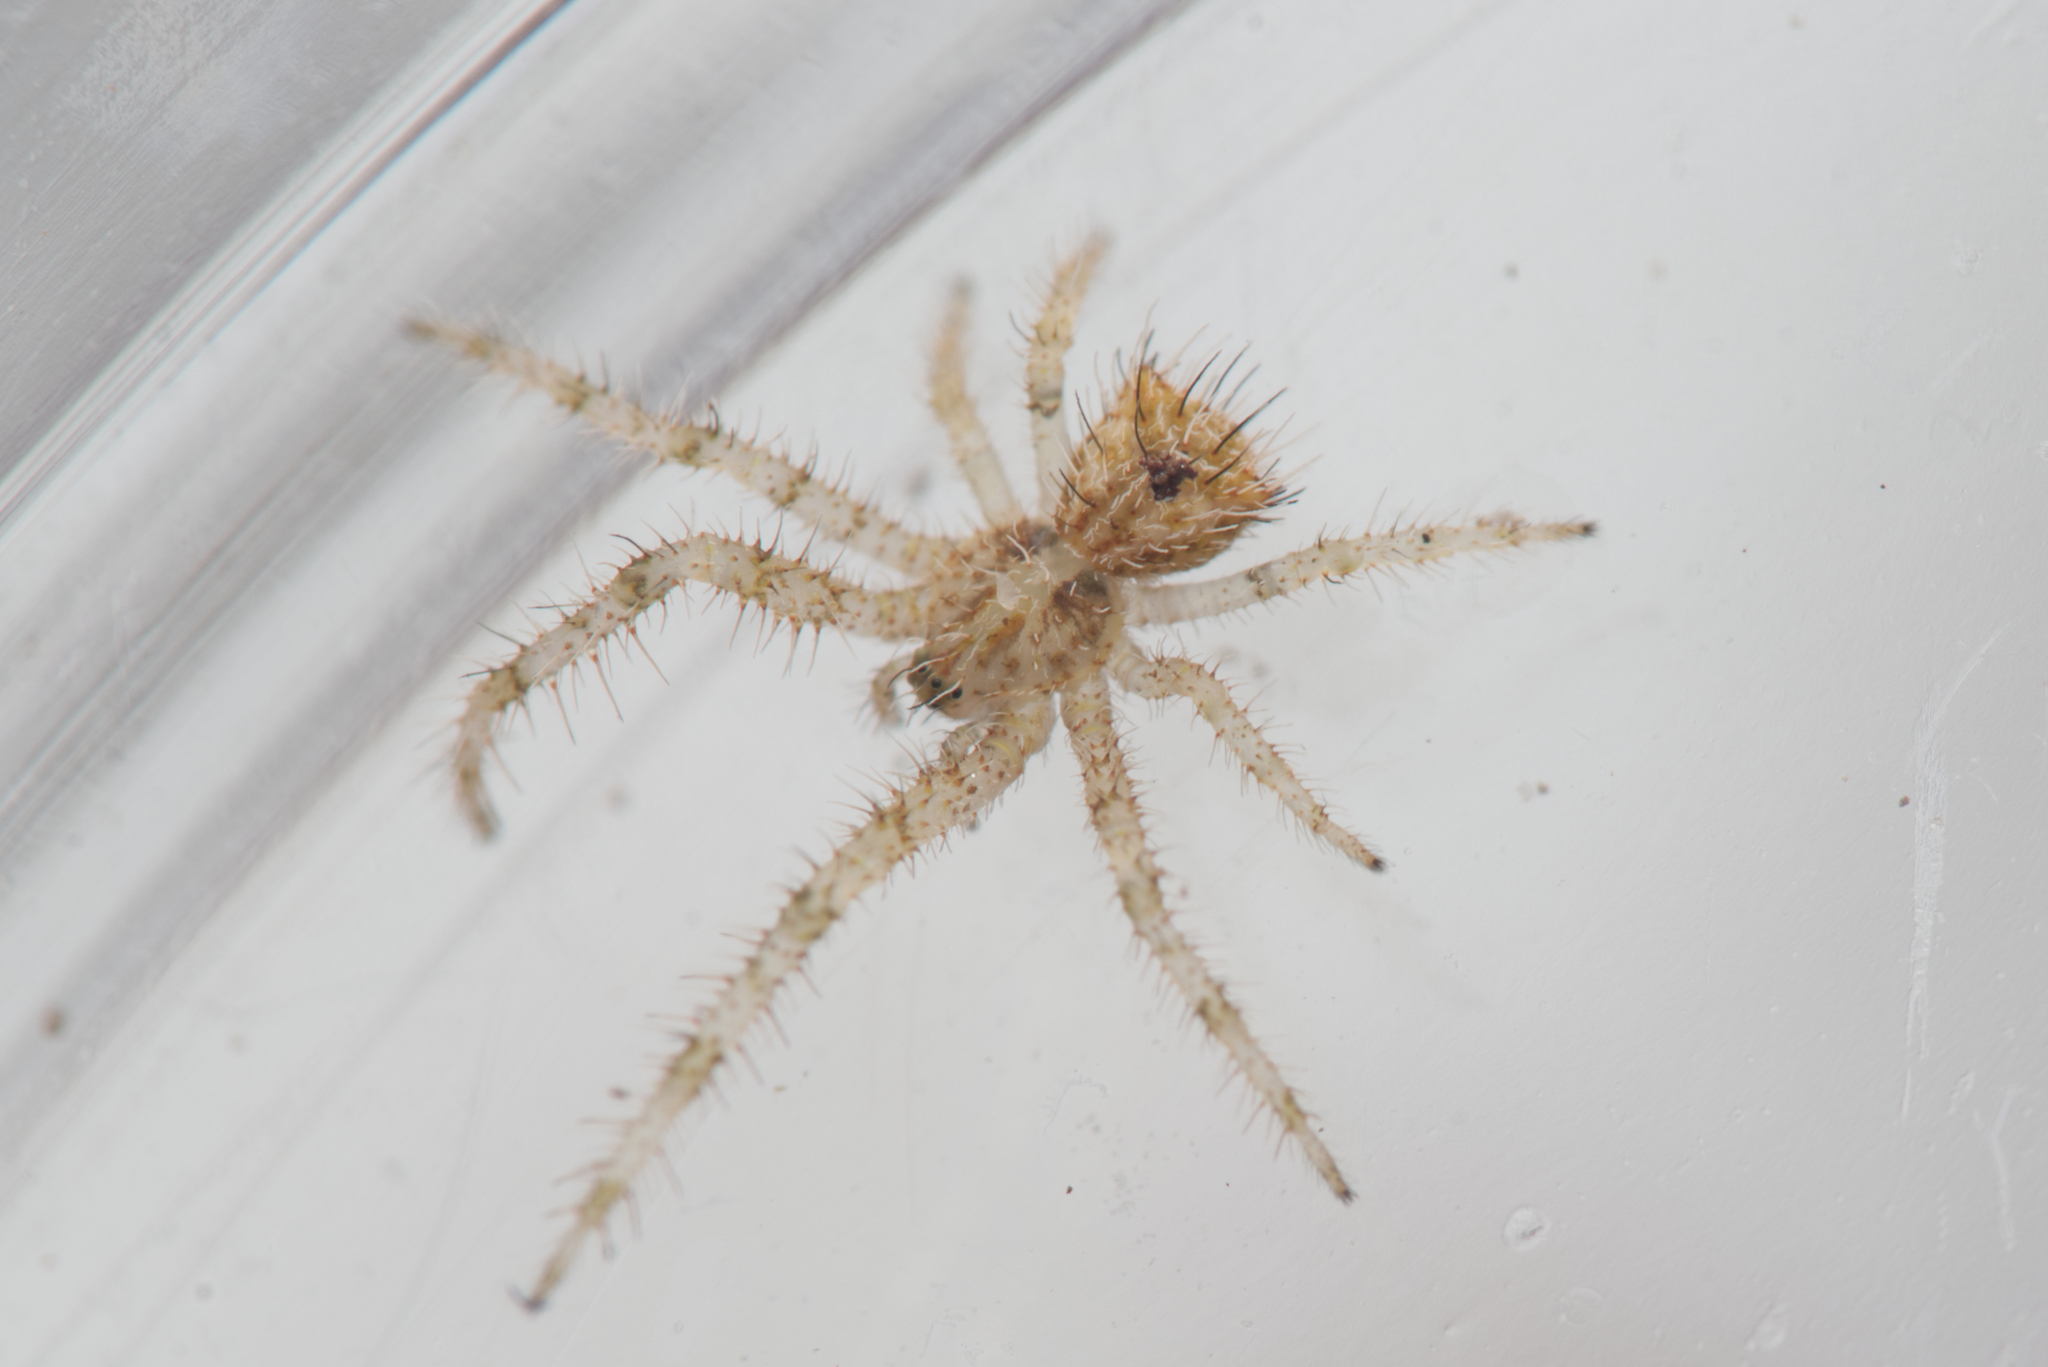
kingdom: Animalia
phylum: Arthropoda
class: Arachnida
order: Araneae
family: Thomisidae
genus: Sidymella
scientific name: Sidymella hirsuta
